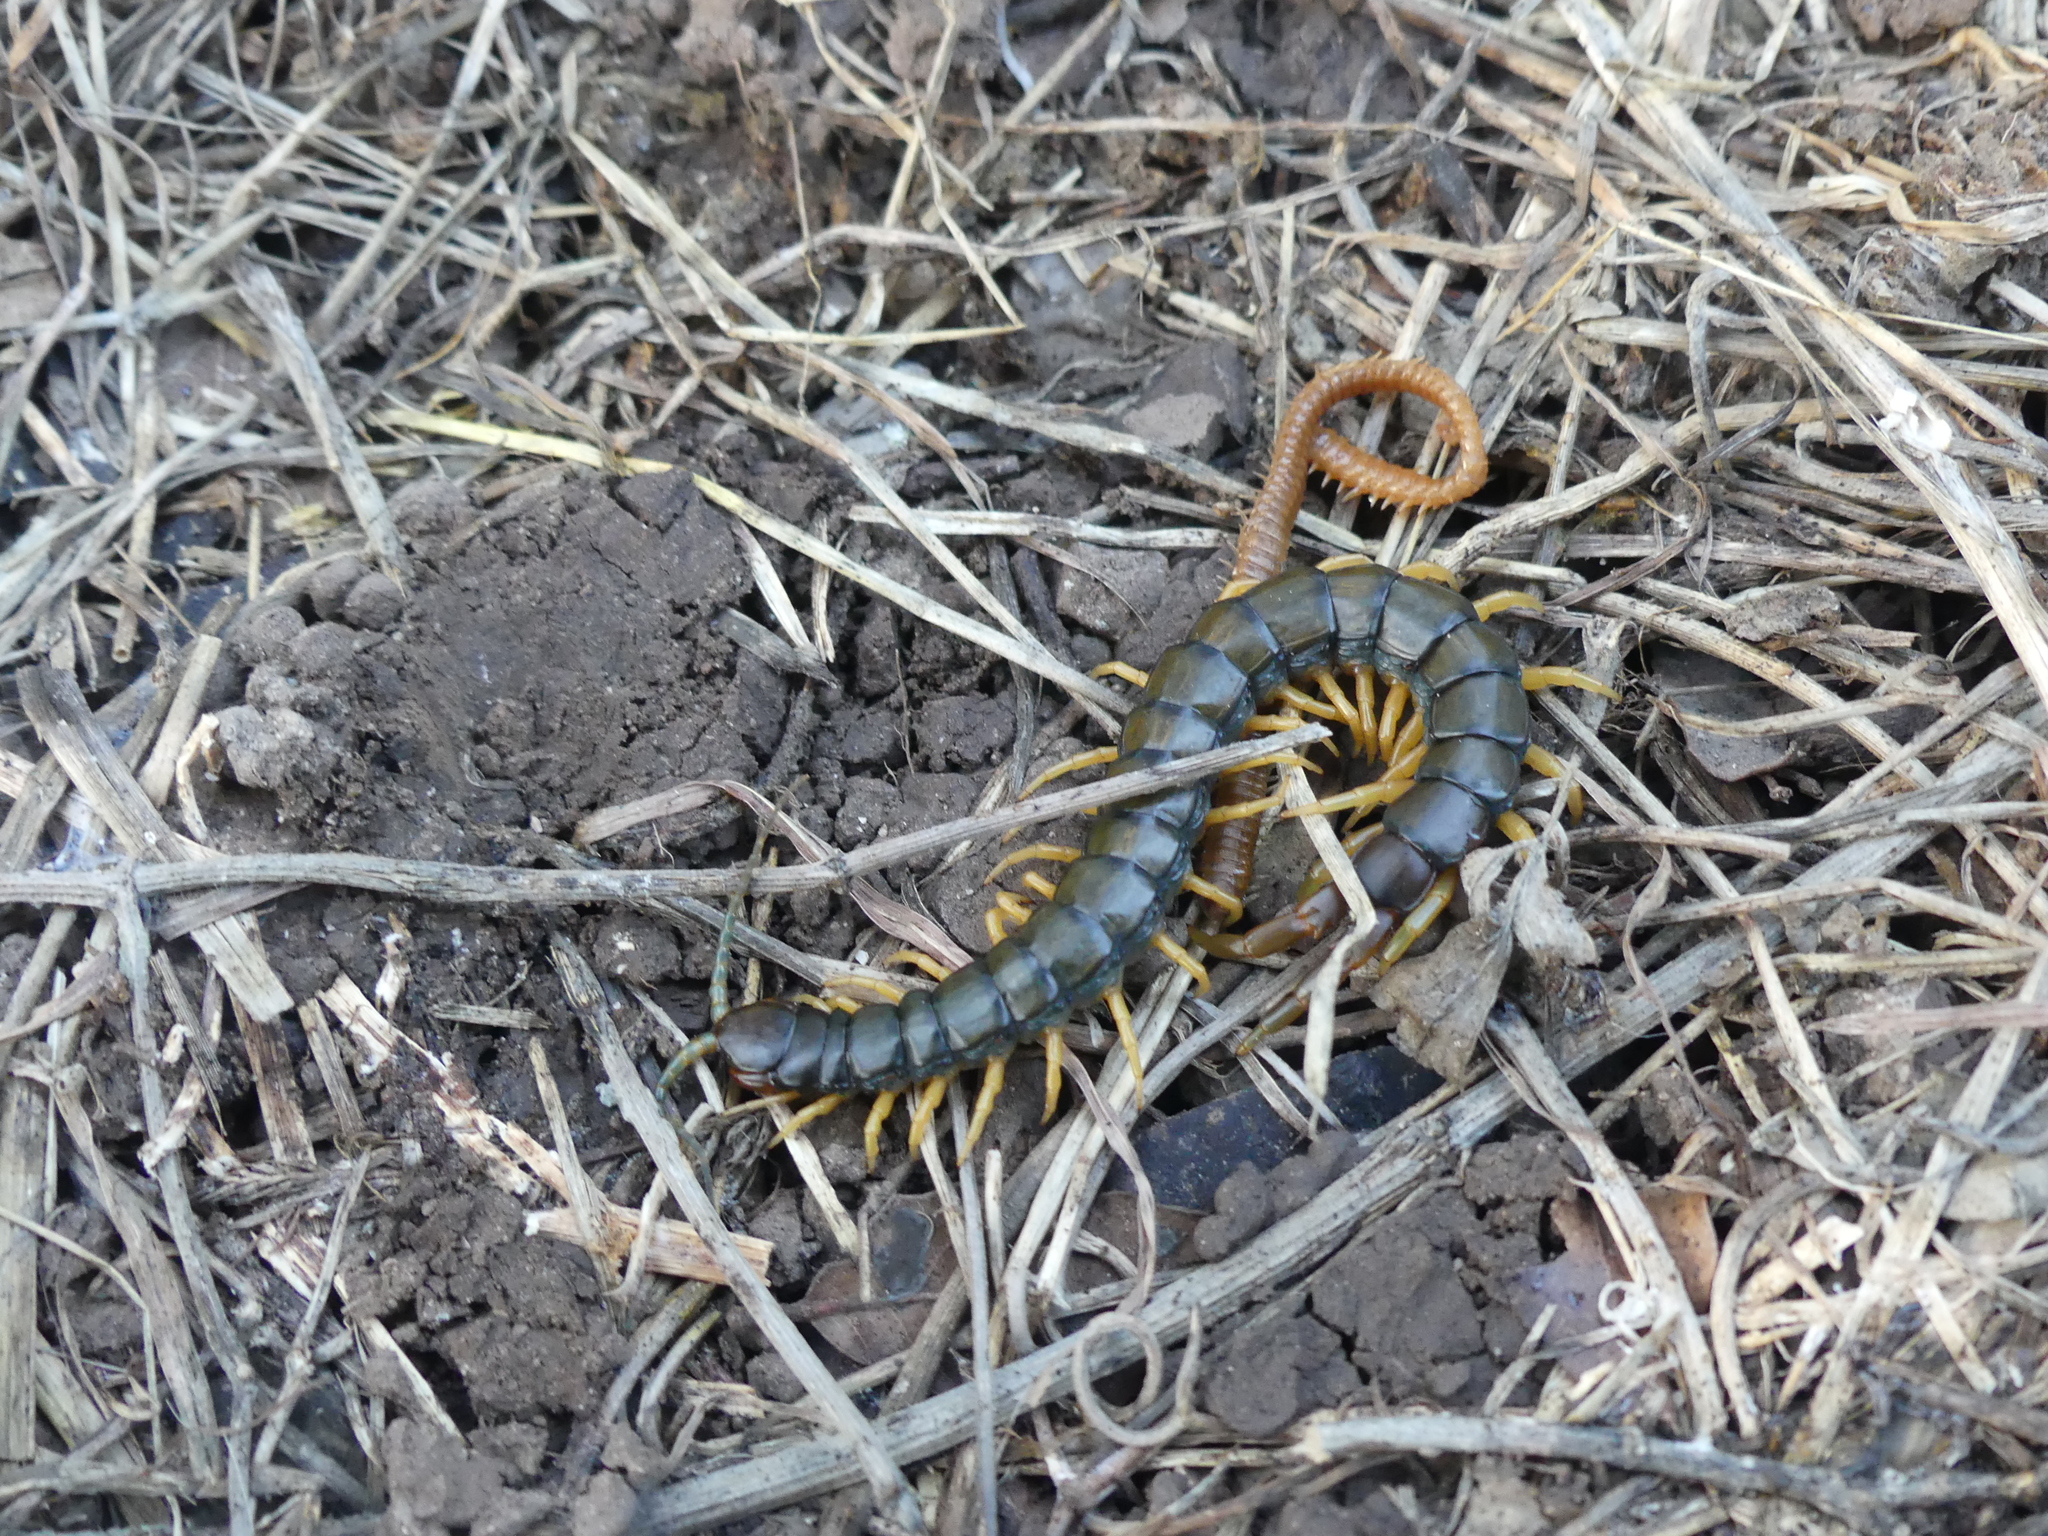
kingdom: Animalia
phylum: Arthropoda
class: Chilopoda
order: Scolopendromorpha
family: Scolopendridae
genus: Scolopendra
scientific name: Scolopendra cingulata
